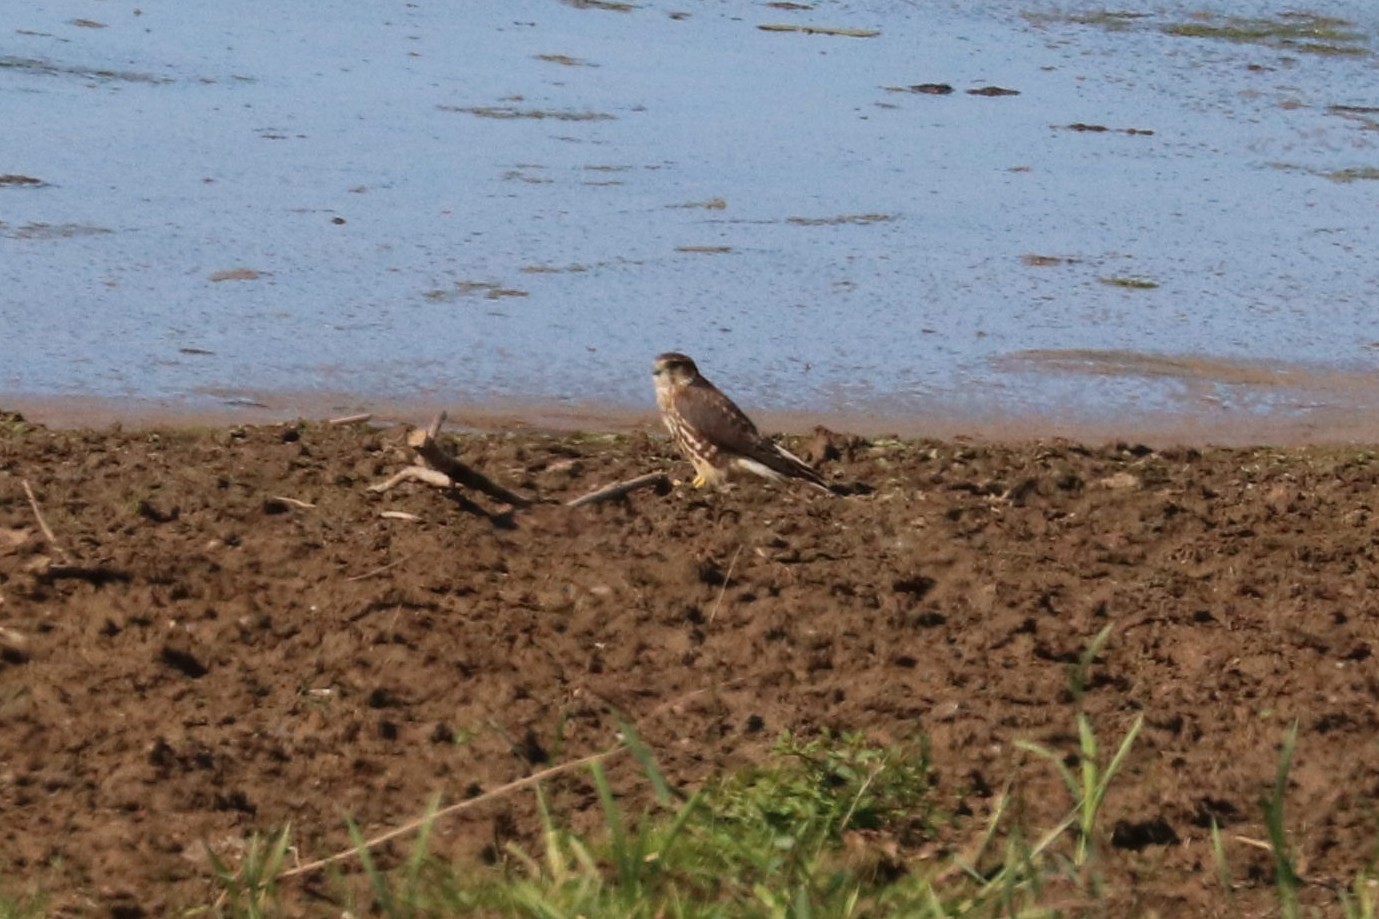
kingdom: Animalia
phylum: Chordata
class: Aves
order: Falconiformes
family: Falconidae
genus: Falco
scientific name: Falco columbarius
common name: Merlin
